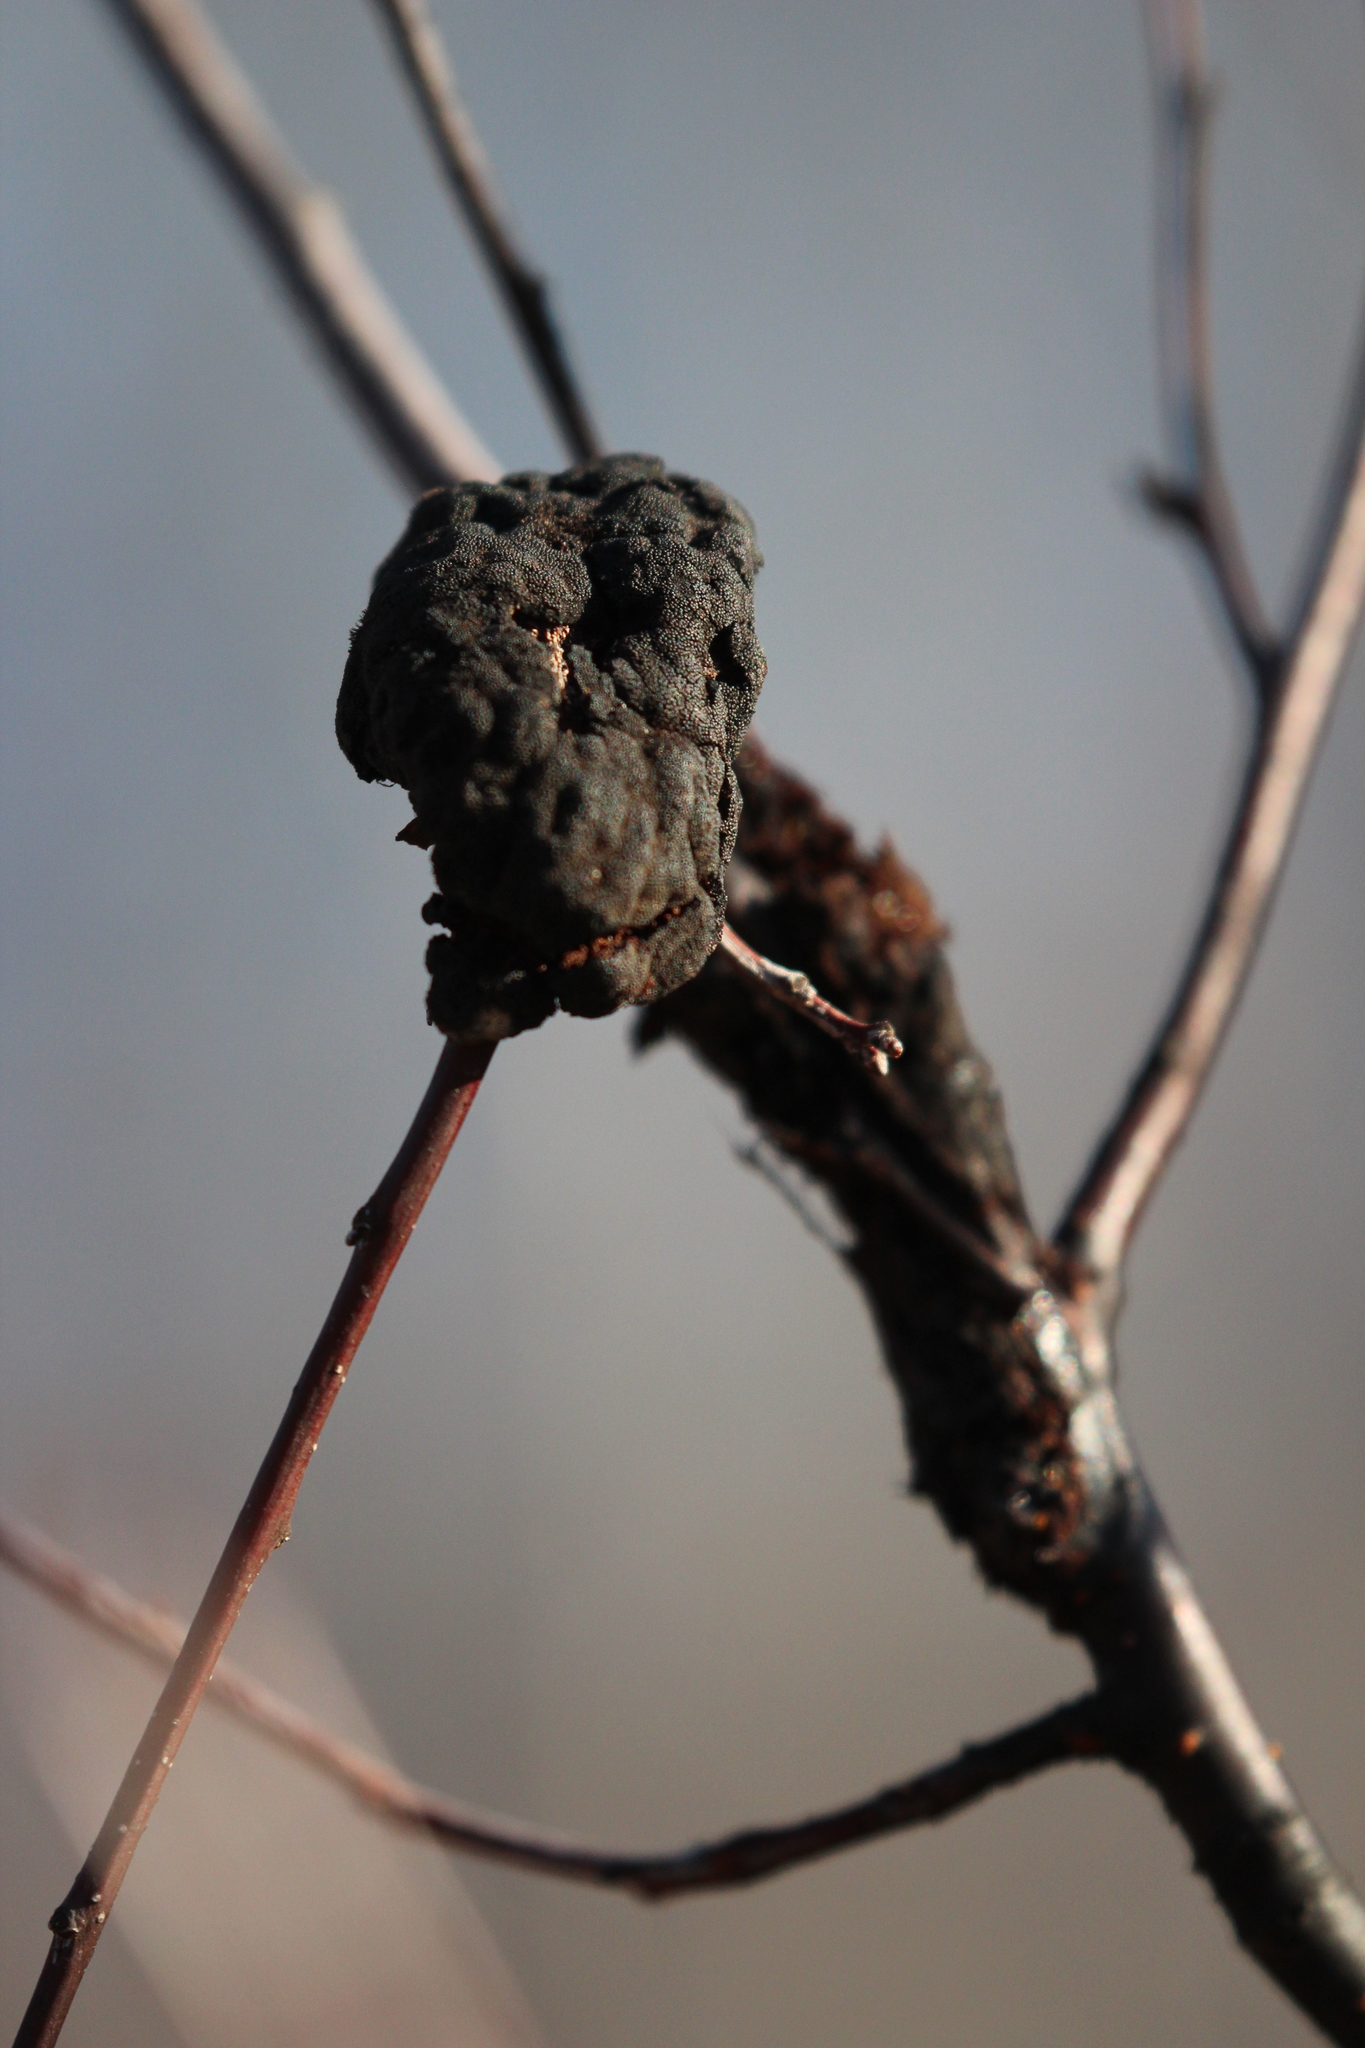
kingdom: Fungi
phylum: Ascomycota
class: Dothideomycetes
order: Venturiales
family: Venturiaceae
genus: Apiosporina
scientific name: Apiosporina morbosa
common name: Black knot
